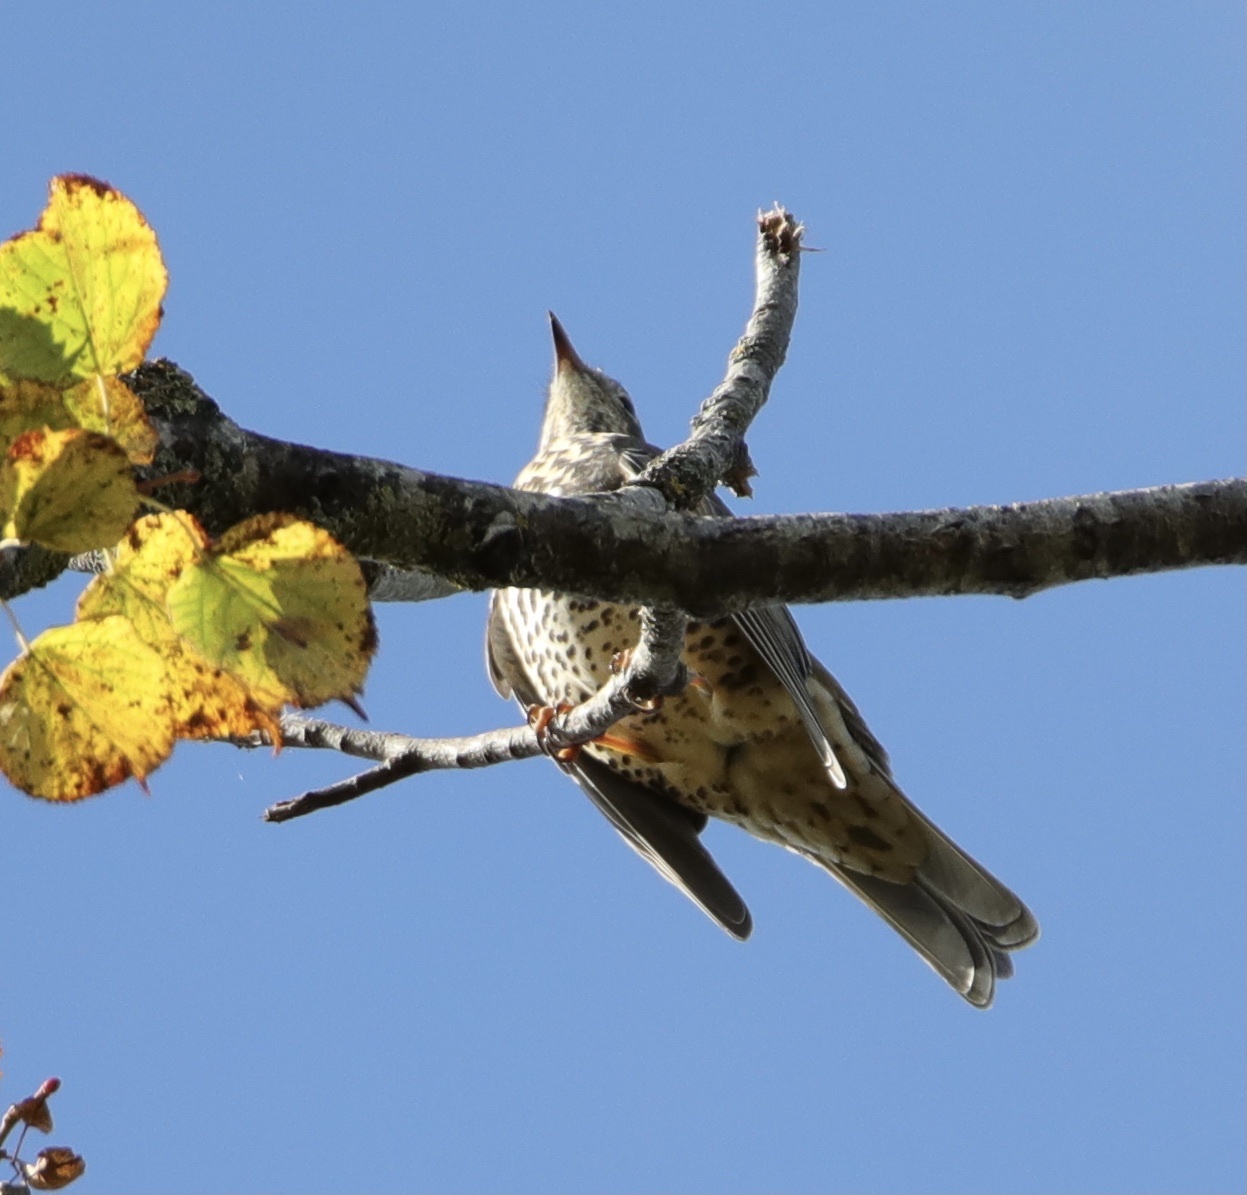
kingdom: Animalia
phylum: Chordata
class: Aves
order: Passeriformes
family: Turdidae
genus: Turdus
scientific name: Turdus viscivorus
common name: Mistle thrush
